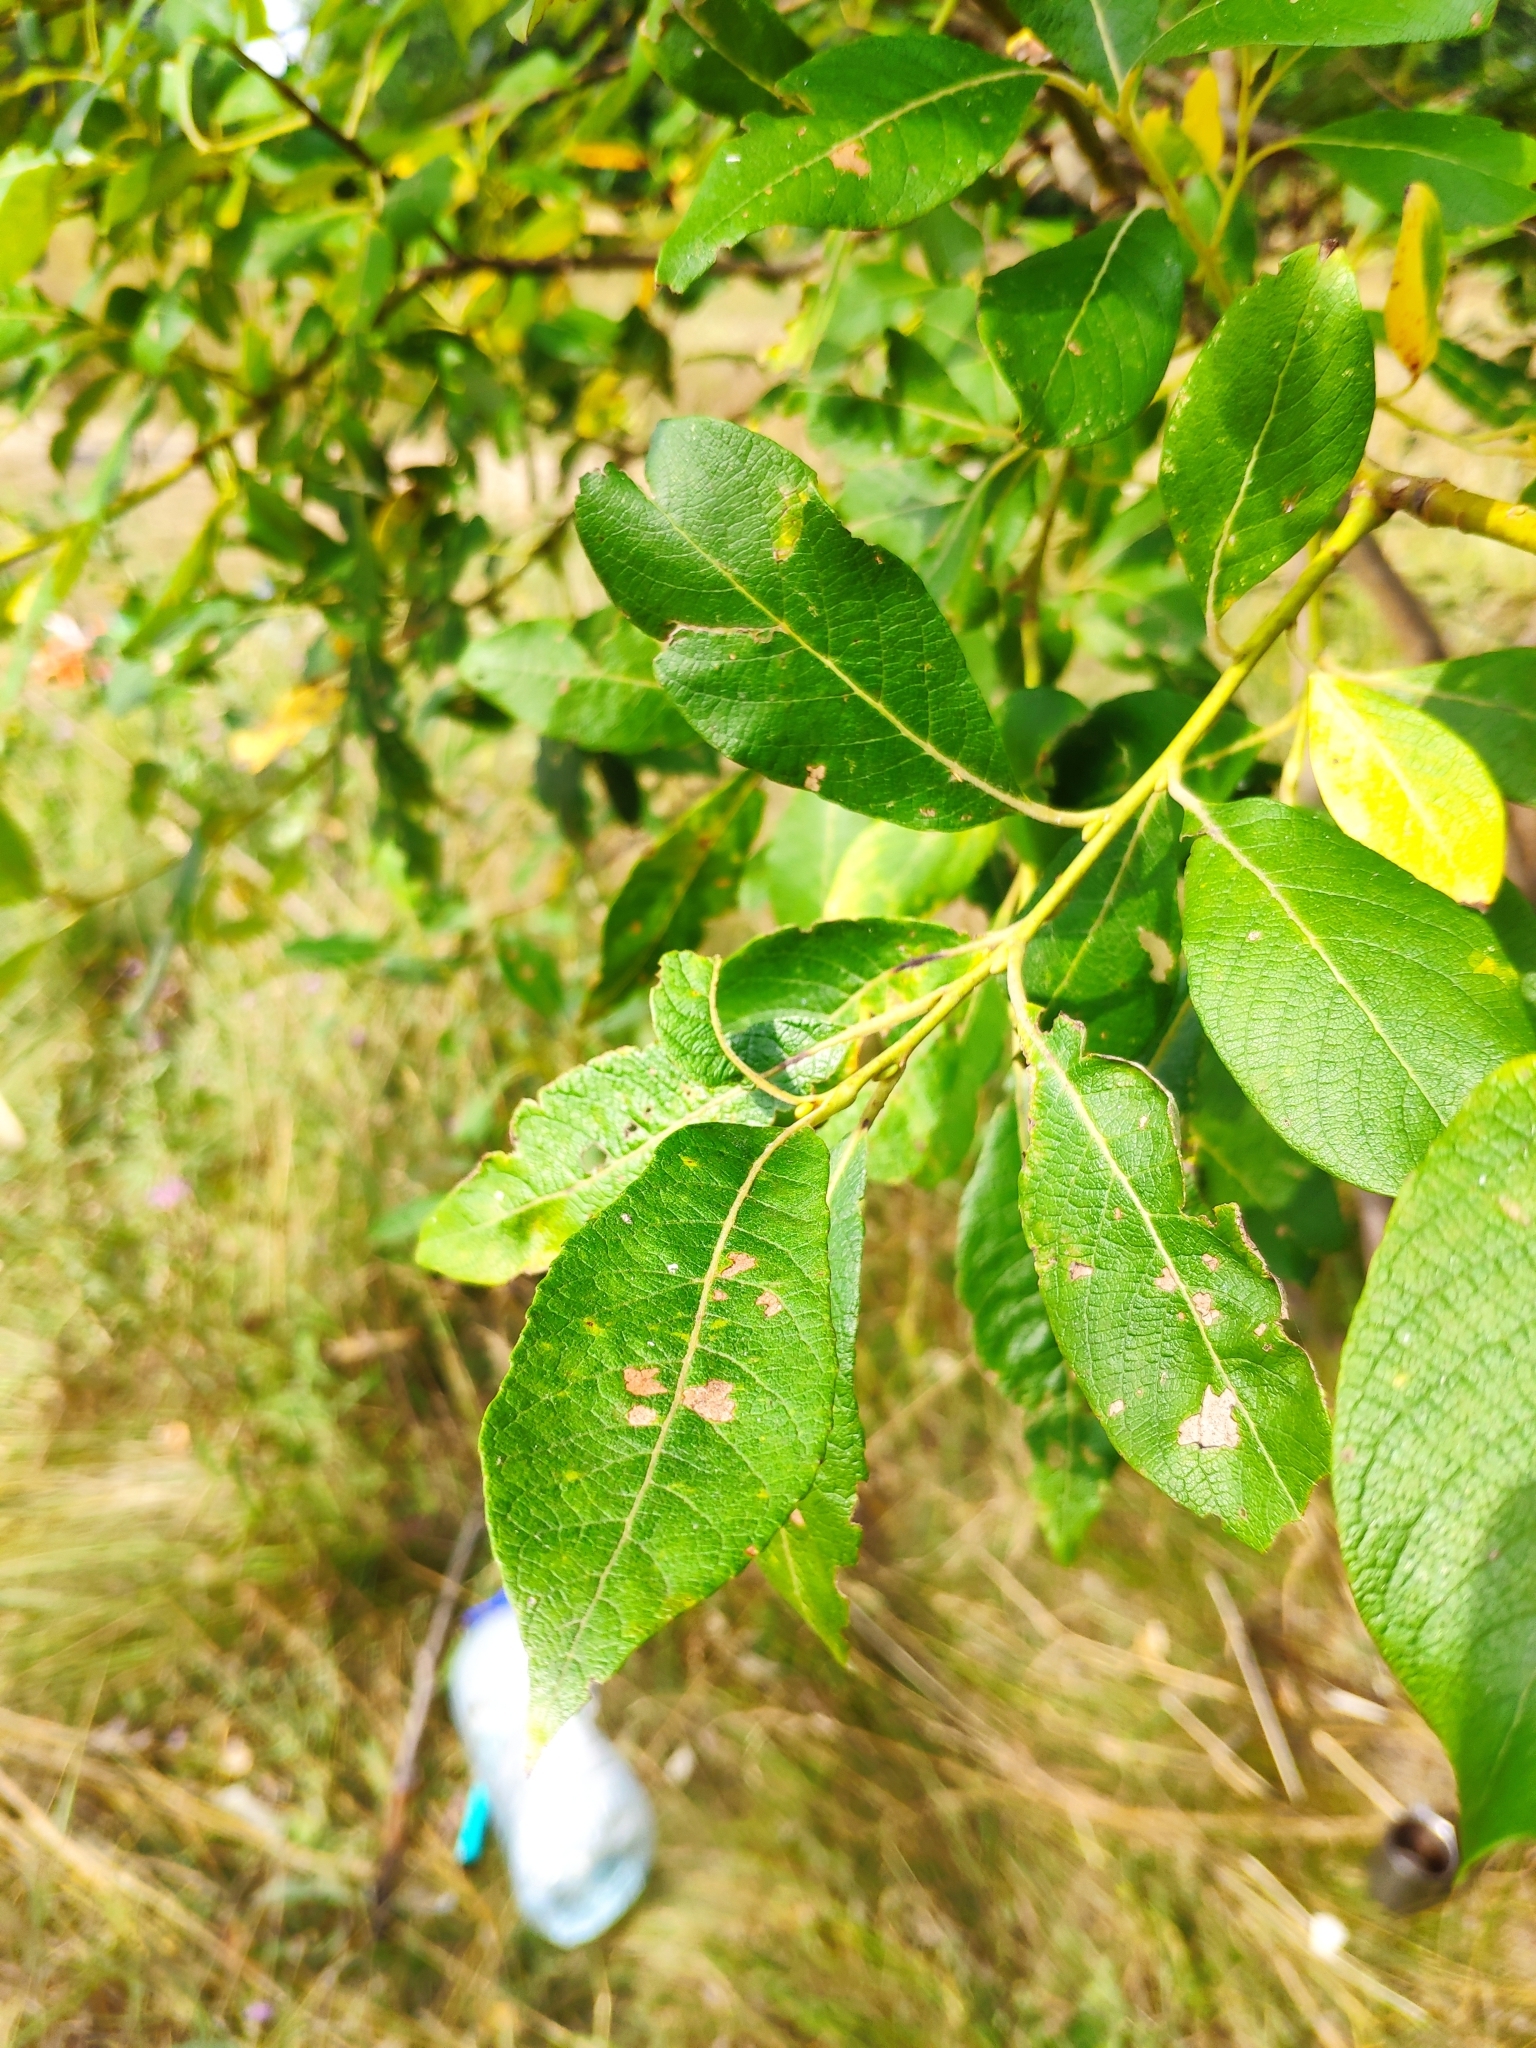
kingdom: Plantae
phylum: Tracheophyta
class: Magnoliopsida
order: Malpighiales
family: Salicaceae
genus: Salix
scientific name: Salix caprea
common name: Goat willow
